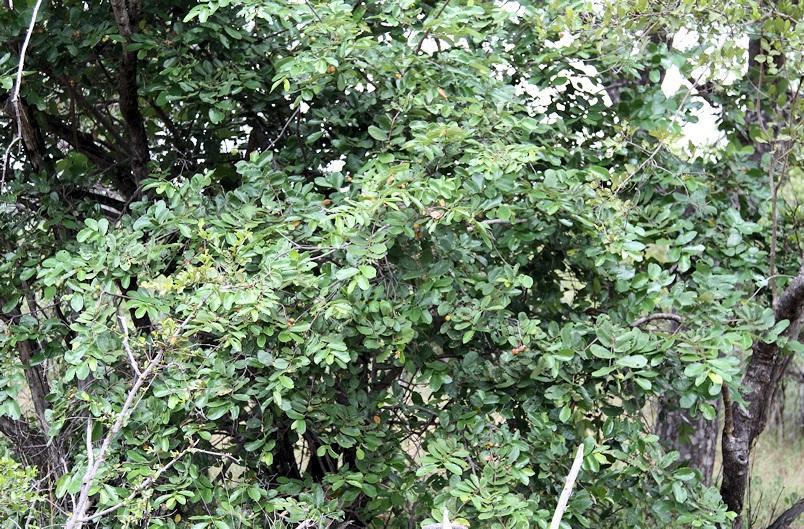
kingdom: Plantae
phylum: Tracheophyta
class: Magnoliopsida
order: Malvales
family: Malvaceae
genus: Grewia
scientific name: Grewia hexamita
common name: Giant raisin
